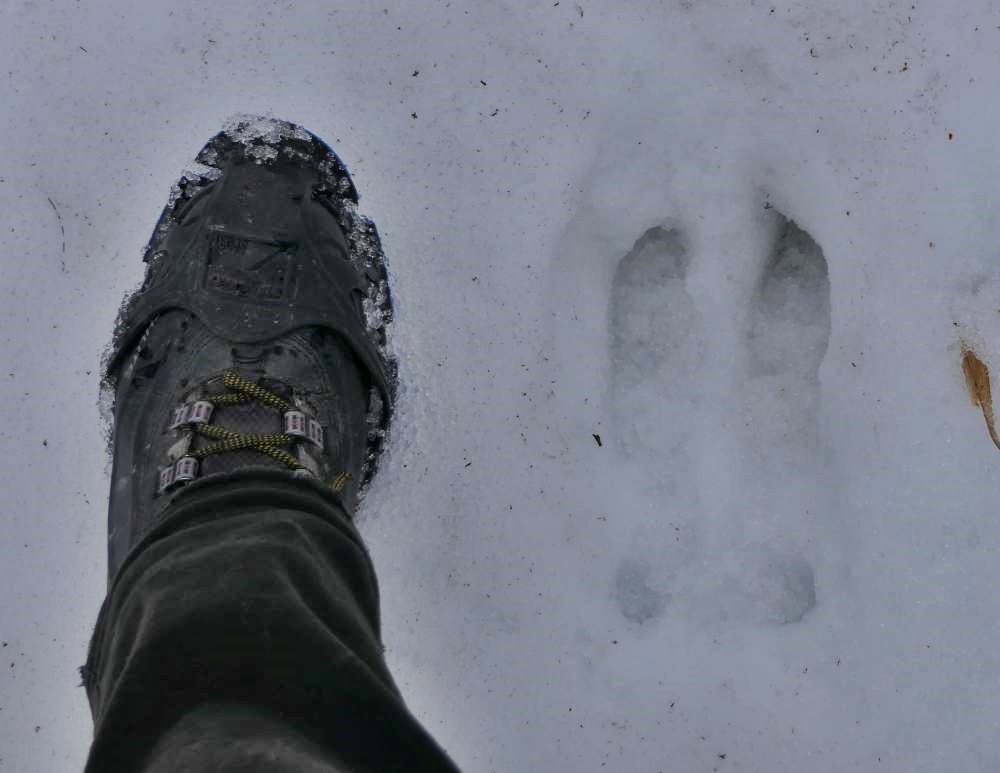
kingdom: Animalia
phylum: Chordata
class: Mammalia
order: Artiodactyla
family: Cervidae
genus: Alces
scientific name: Alces alces
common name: Moose
